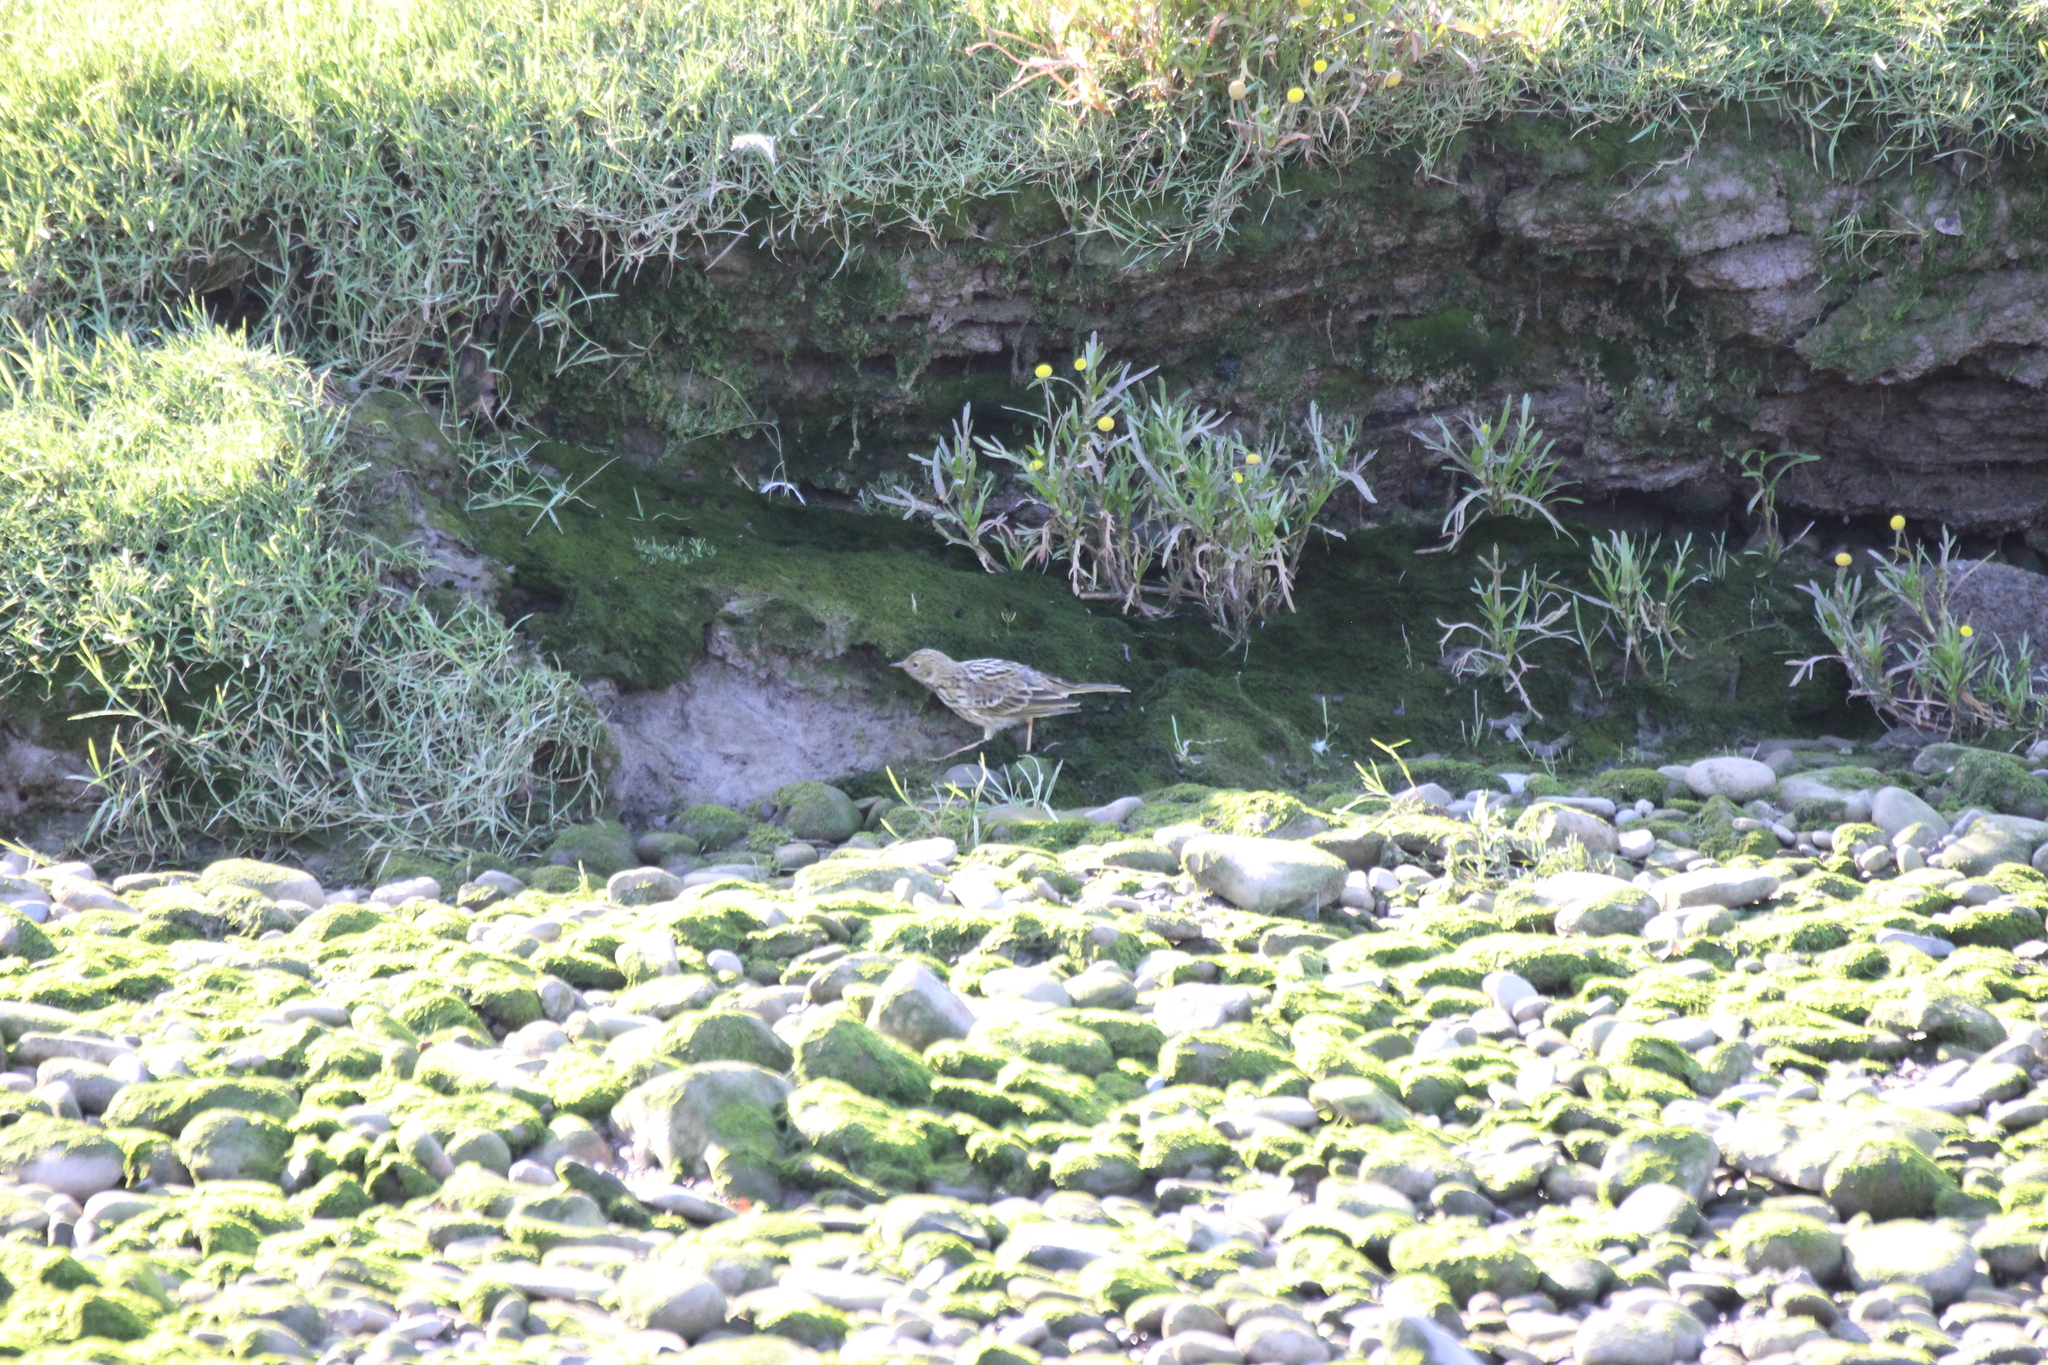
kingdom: Animalia
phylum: Chordata
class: Aves
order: Passeriformes
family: Motacillidae
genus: Anthus
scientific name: Anthus pratensis
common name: Meadow pipit
